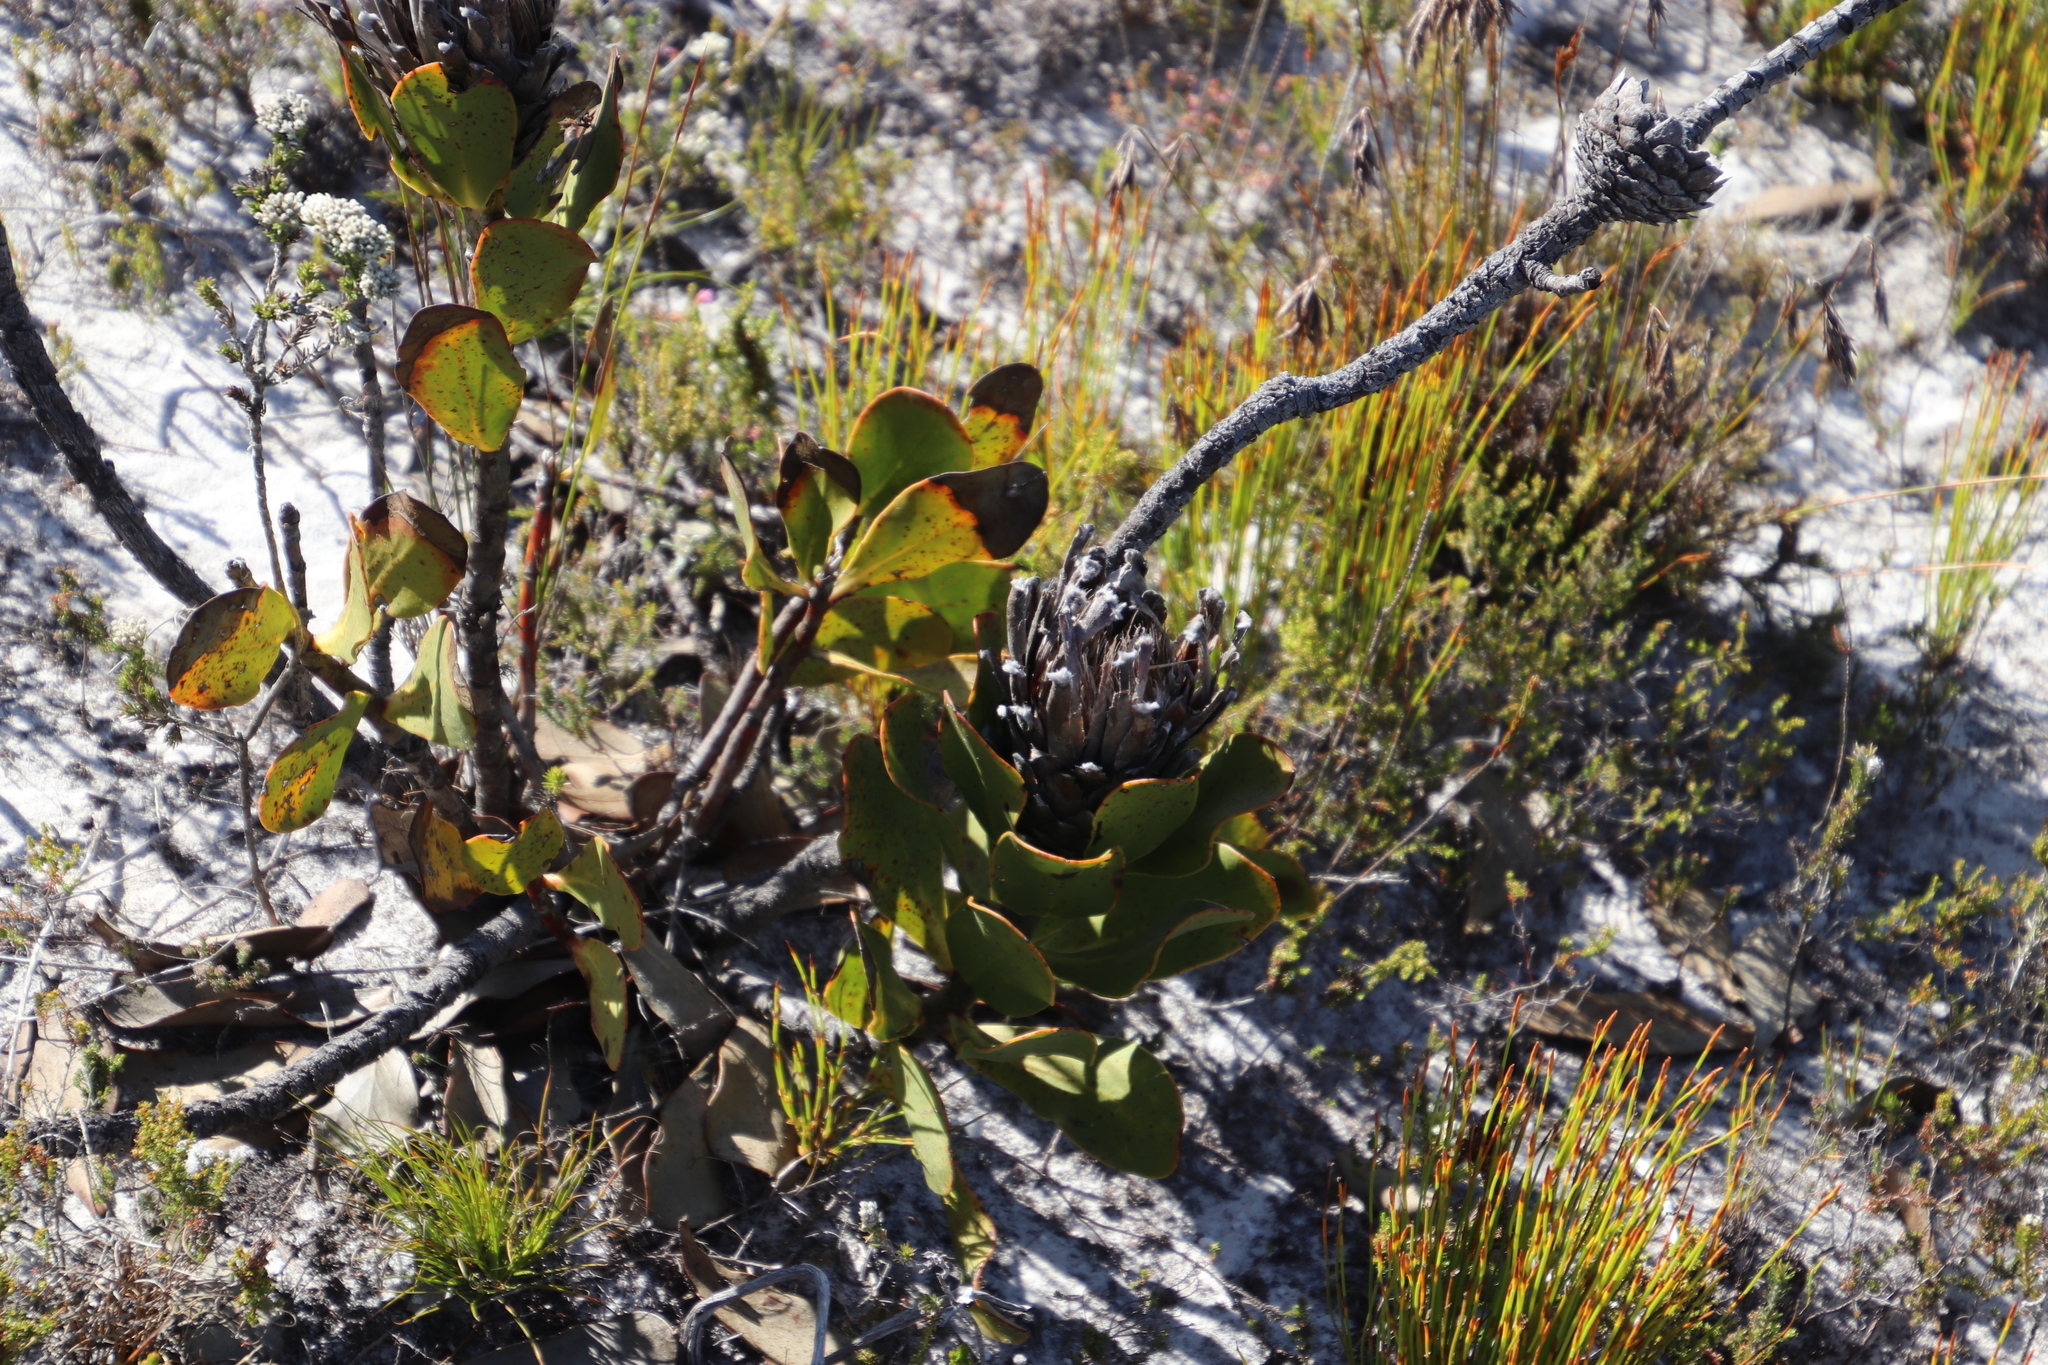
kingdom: Plantae
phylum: Tracheophyta
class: Magnoliopsida
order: Proteales
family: Proteaceae
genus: Protea
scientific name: Protea speciosa
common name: Brown-beard sugarbush
